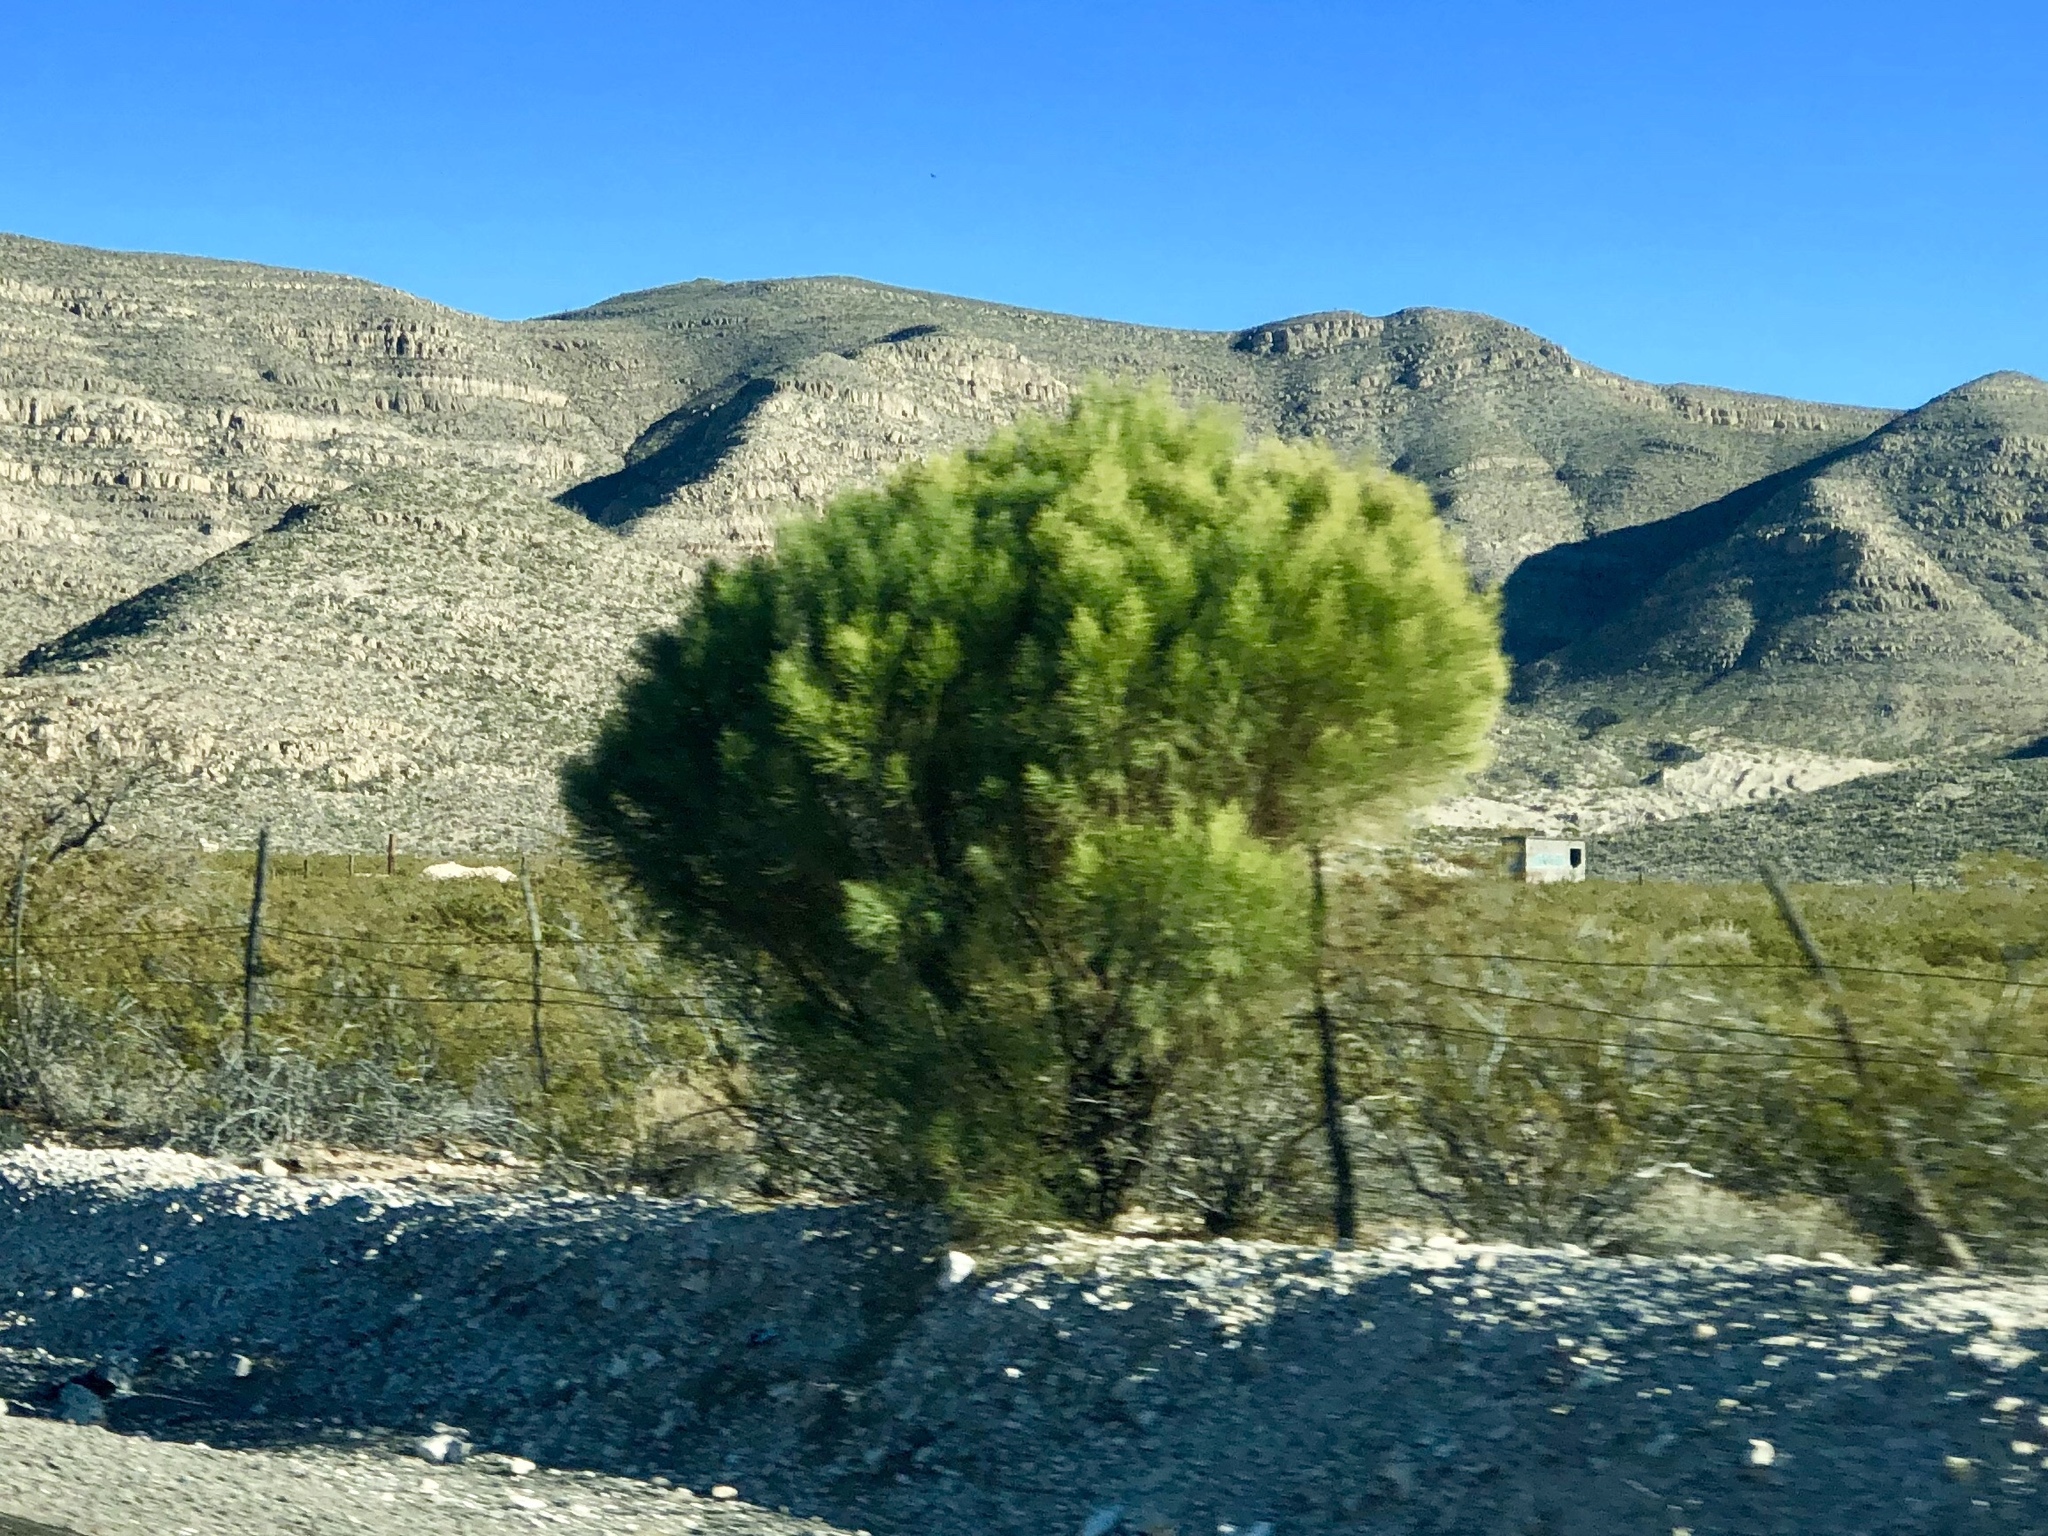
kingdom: Plantae
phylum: Tracheophyta
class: Magnoliopsida
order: Asterales
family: Asteraceae
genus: Baccharis
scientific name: Baccharis sarothroides
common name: Desert-broom
